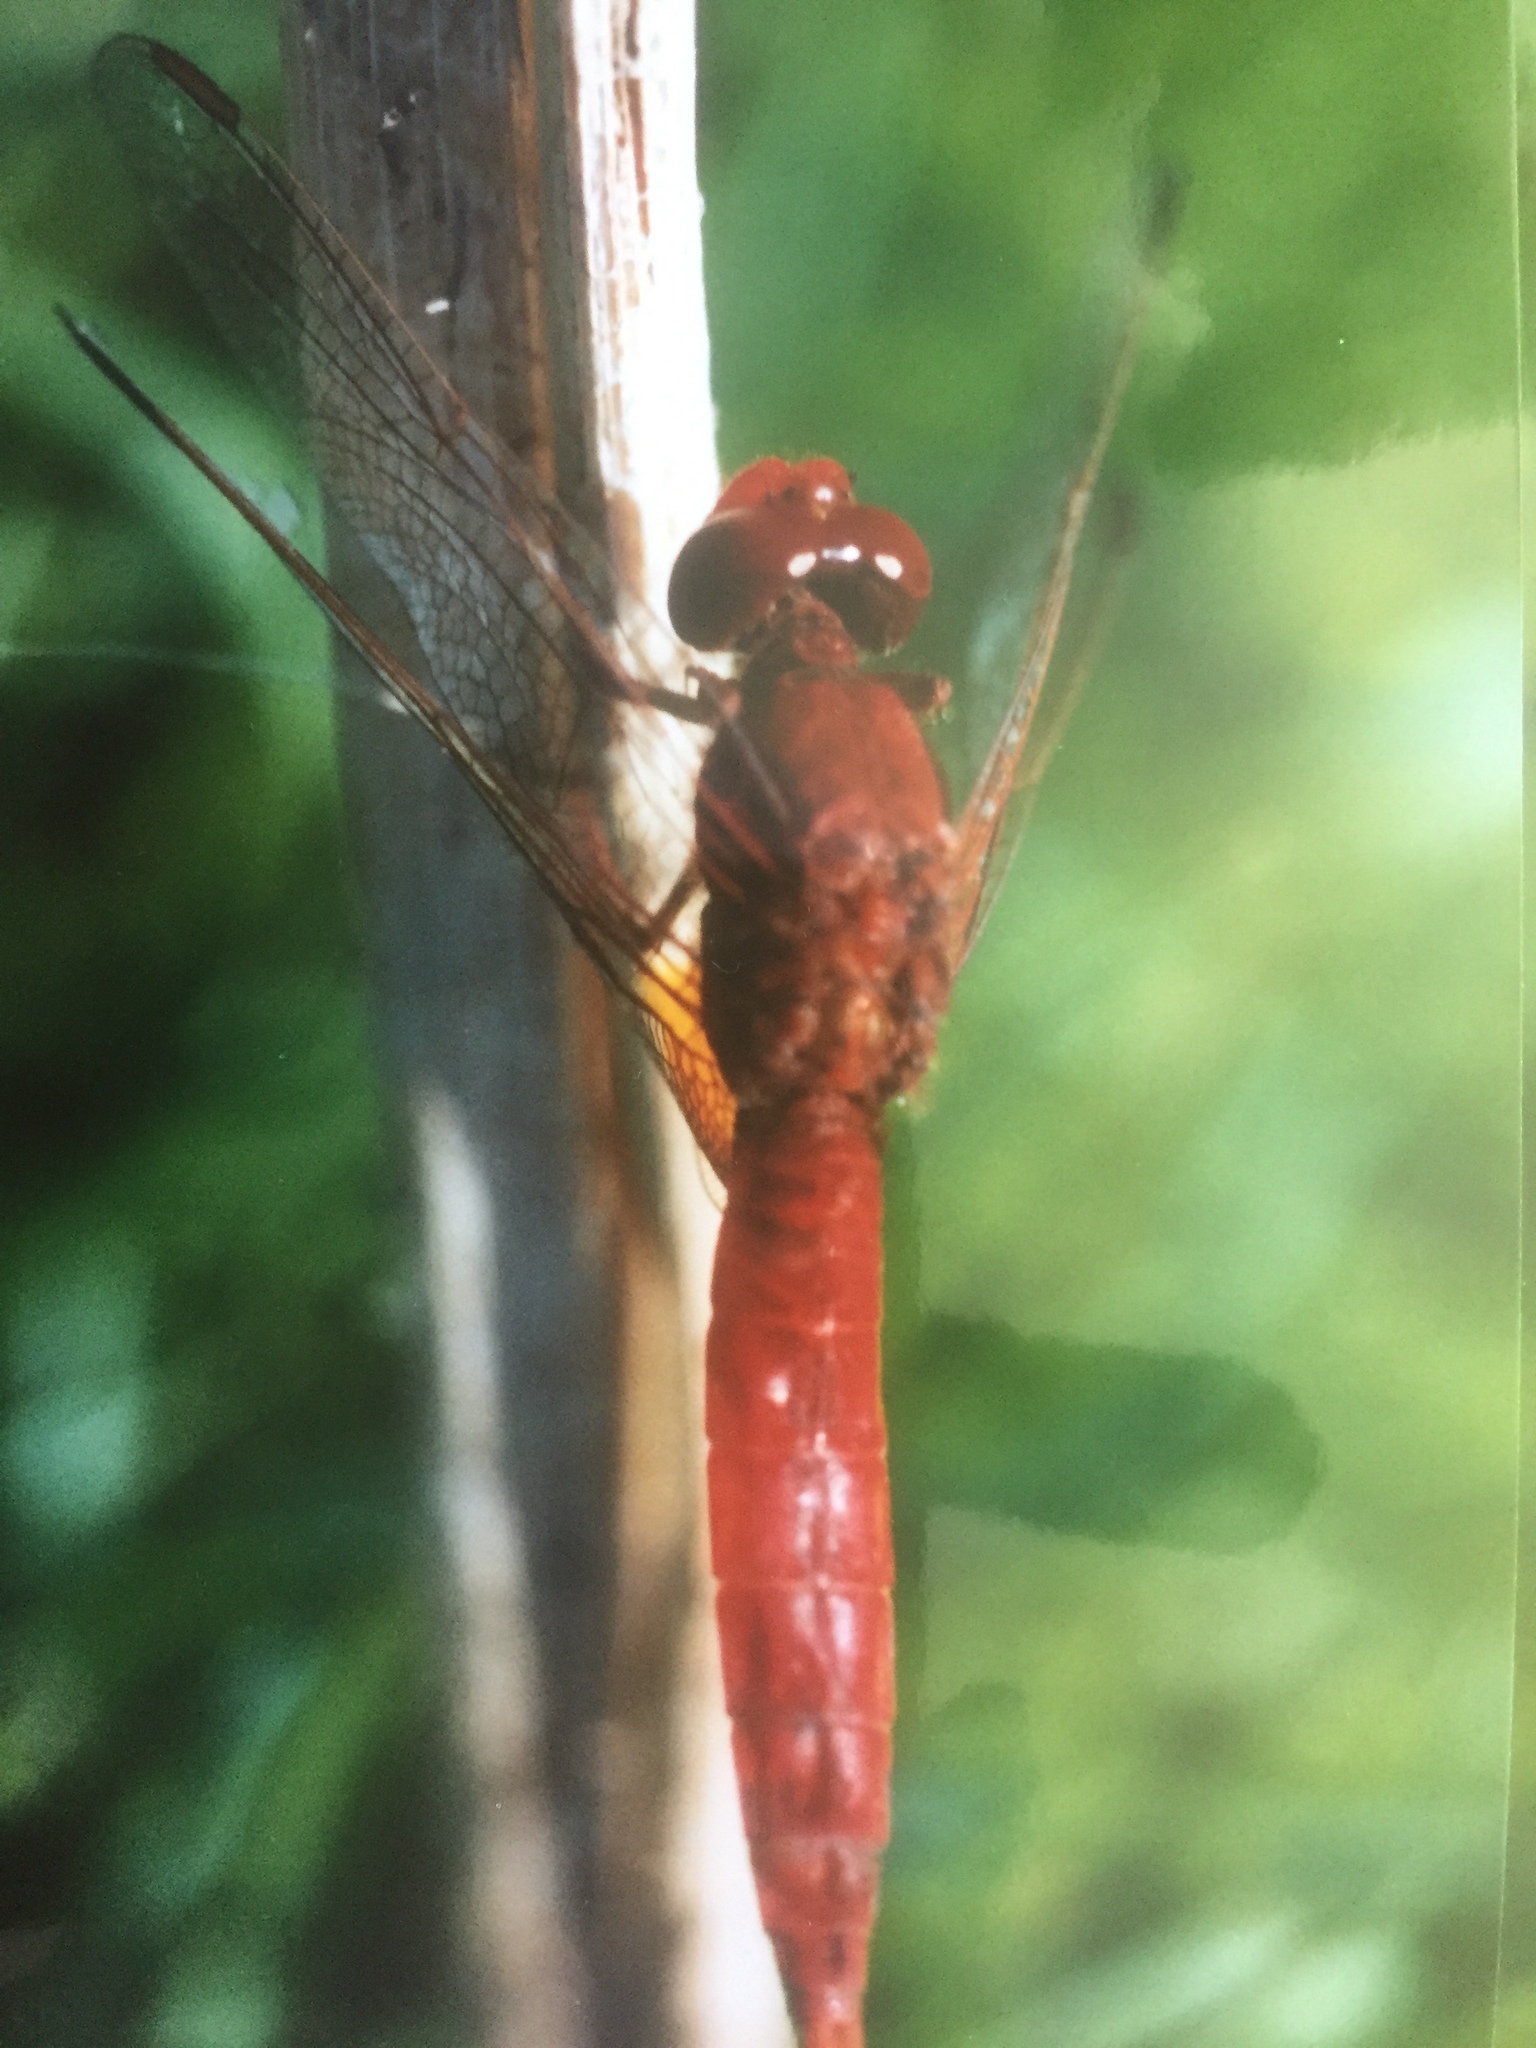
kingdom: Animalia
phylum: Arthropoda
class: Insecta
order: Odonata
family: Libellulidae
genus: Crocothemis
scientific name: Crocothemis erythraea
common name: Scarlet dragonfly
